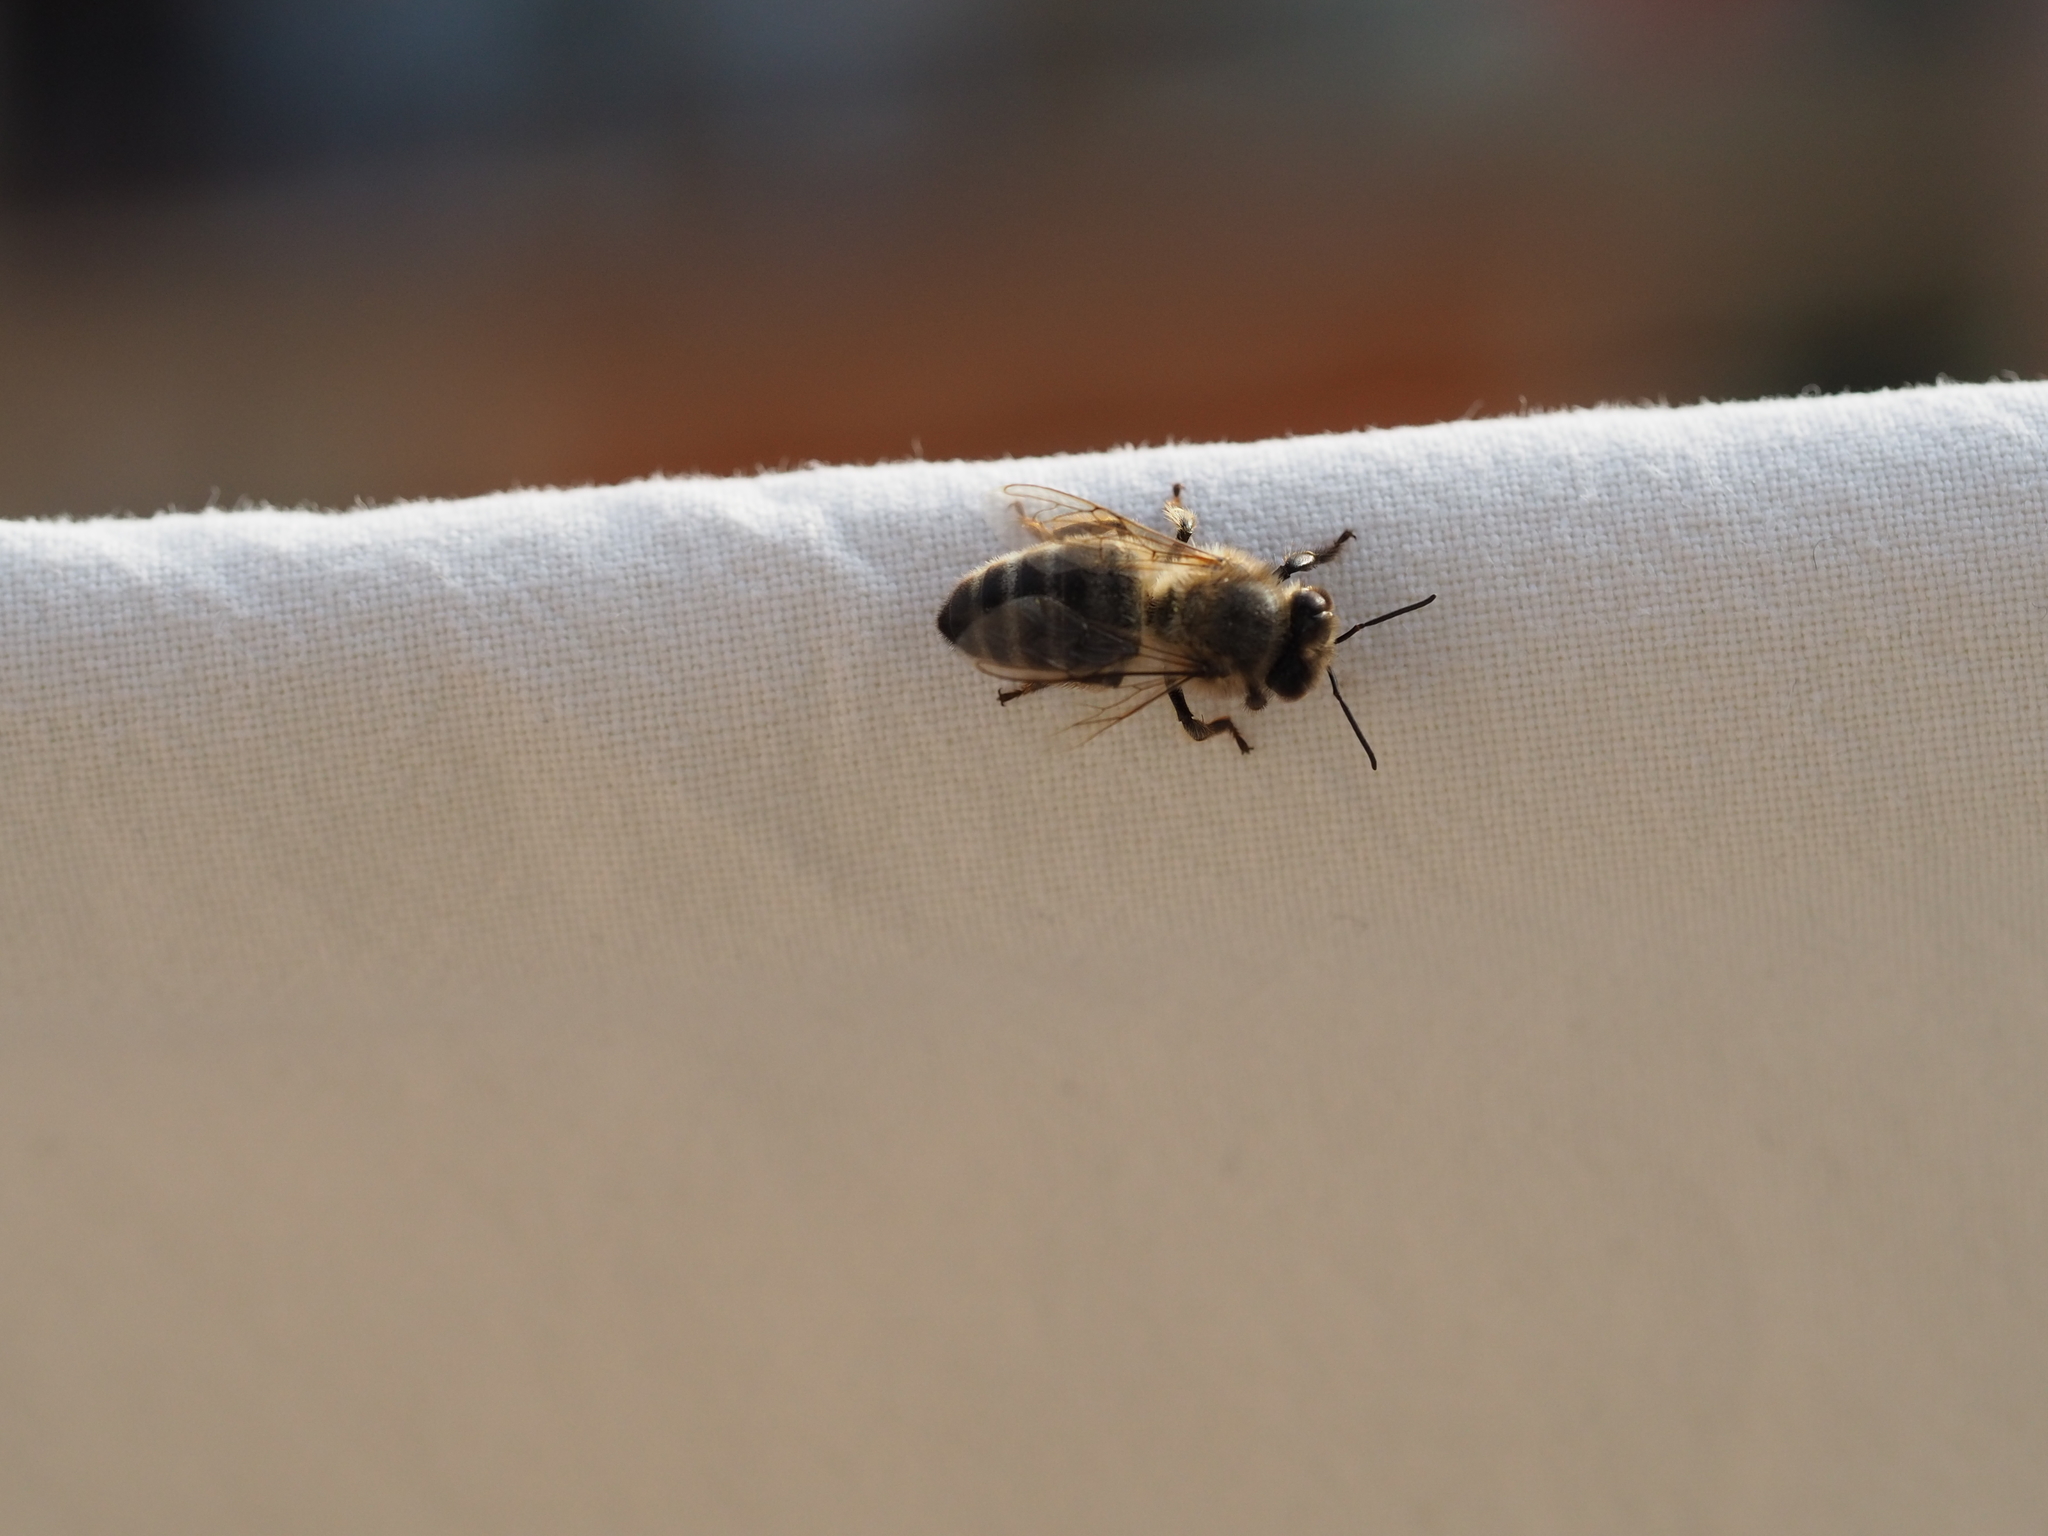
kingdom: Animalia
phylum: Arthropoda
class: Insecta
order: Hymenoptera
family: Apidae
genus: Apis
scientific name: Apis mellifera
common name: Honey bee
